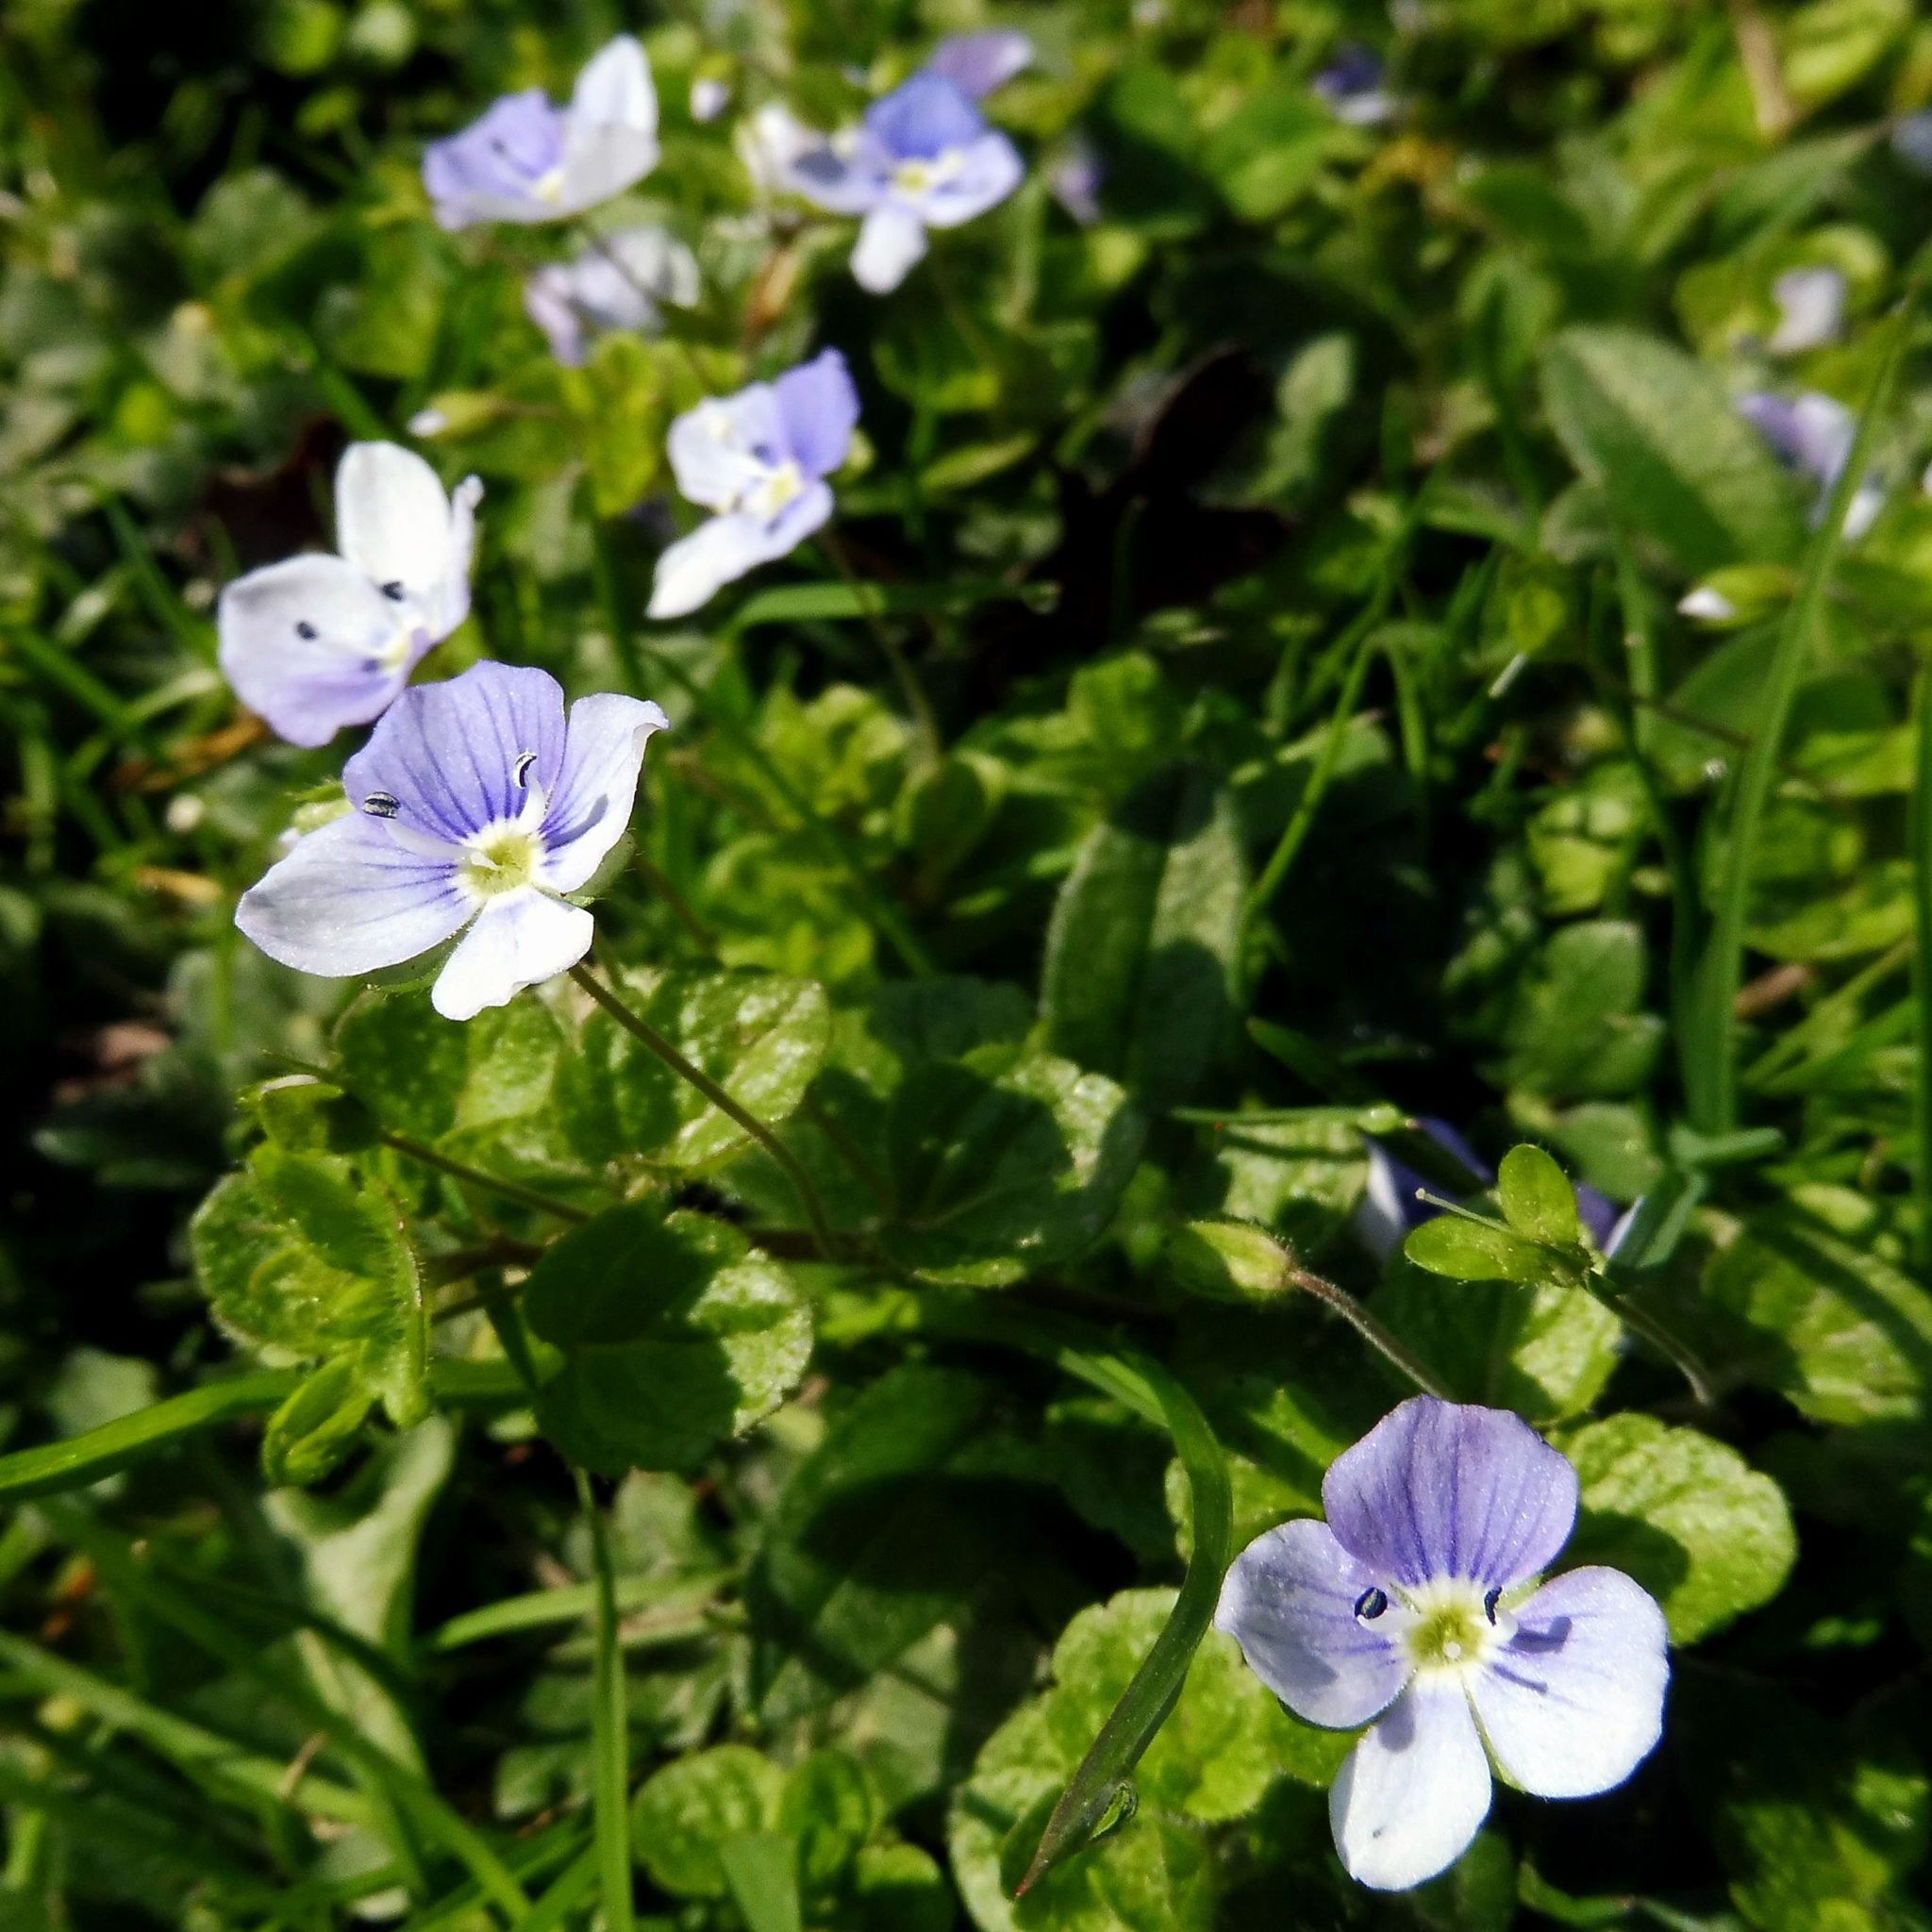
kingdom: Plantae
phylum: Tracheophyta
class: Magnoliopsida
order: Lamiales
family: Plantaginaceae
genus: Veronica
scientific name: Veronica filiformis
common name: Slender speedwell
